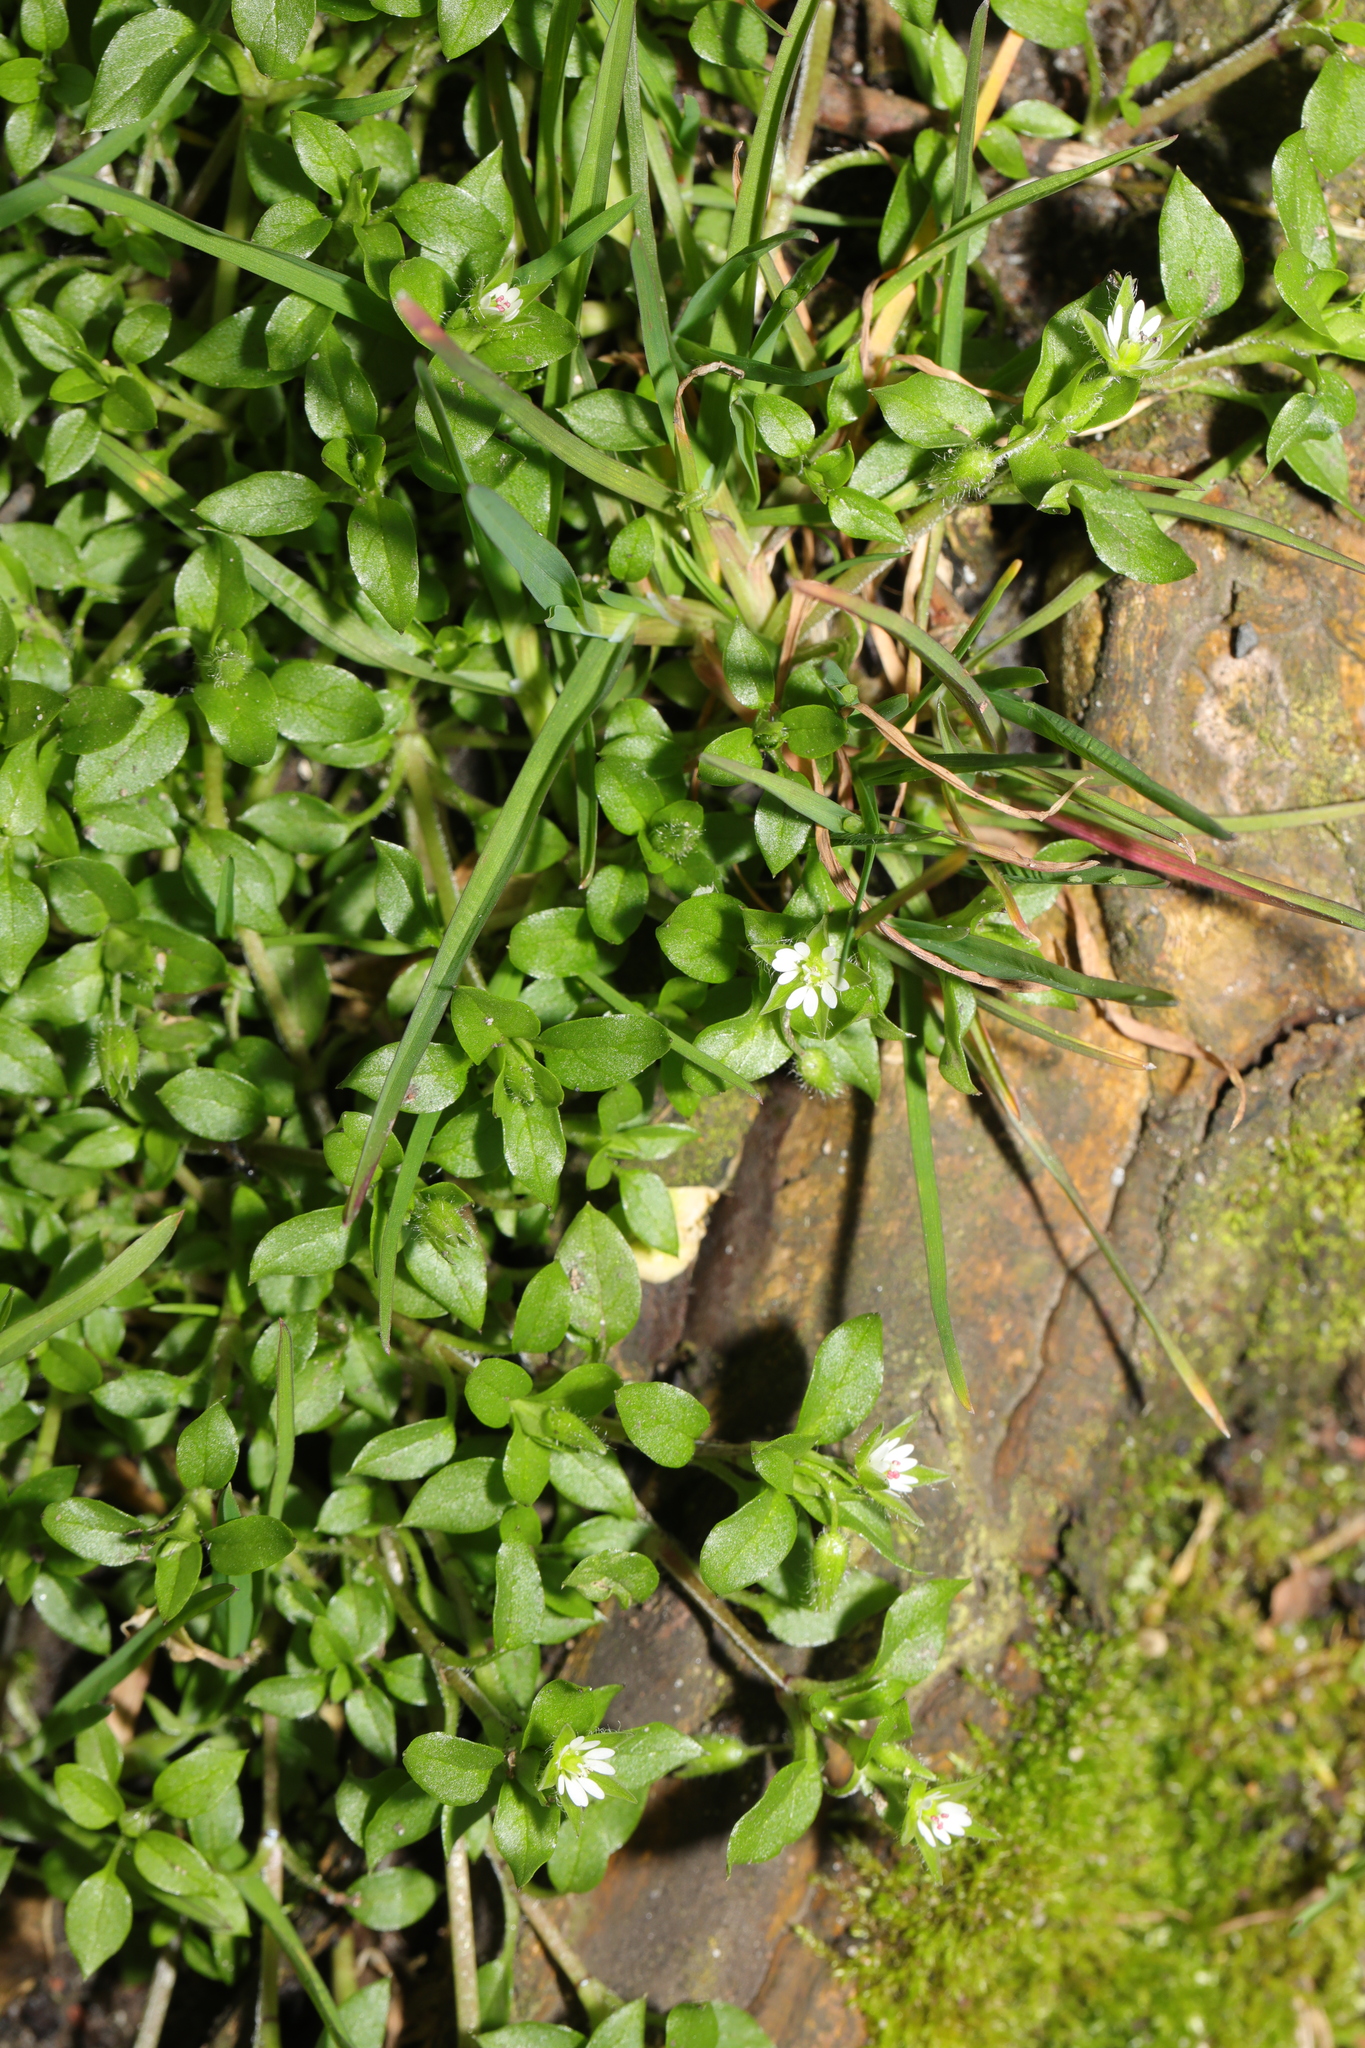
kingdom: Plantae
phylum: Tracheophyta
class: Magnoliopsida
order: Caryophyllales
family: Caryophyllaceae
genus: Stellaria
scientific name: Stellaria media
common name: Common chickweed
